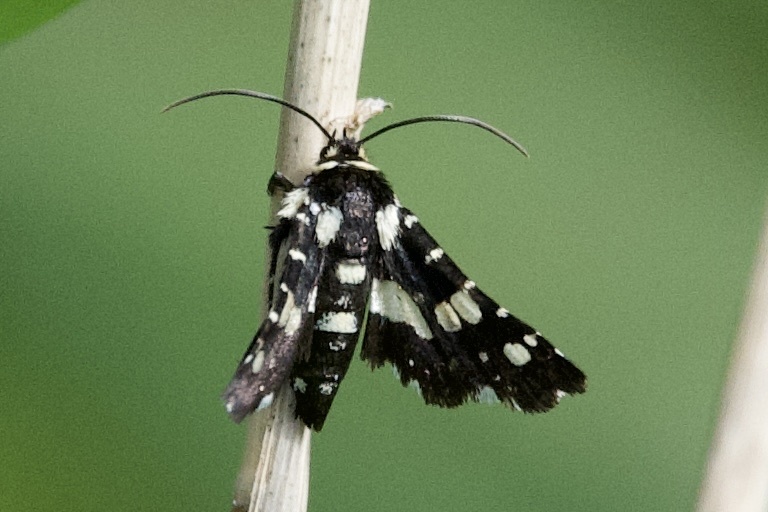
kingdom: Animalia
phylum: Arthropoda
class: Insecta
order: Lepidoptera
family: Thyrididae
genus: Pseudothyris
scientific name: Pseudothyris sepulchralis
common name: Mournful thyris moth
